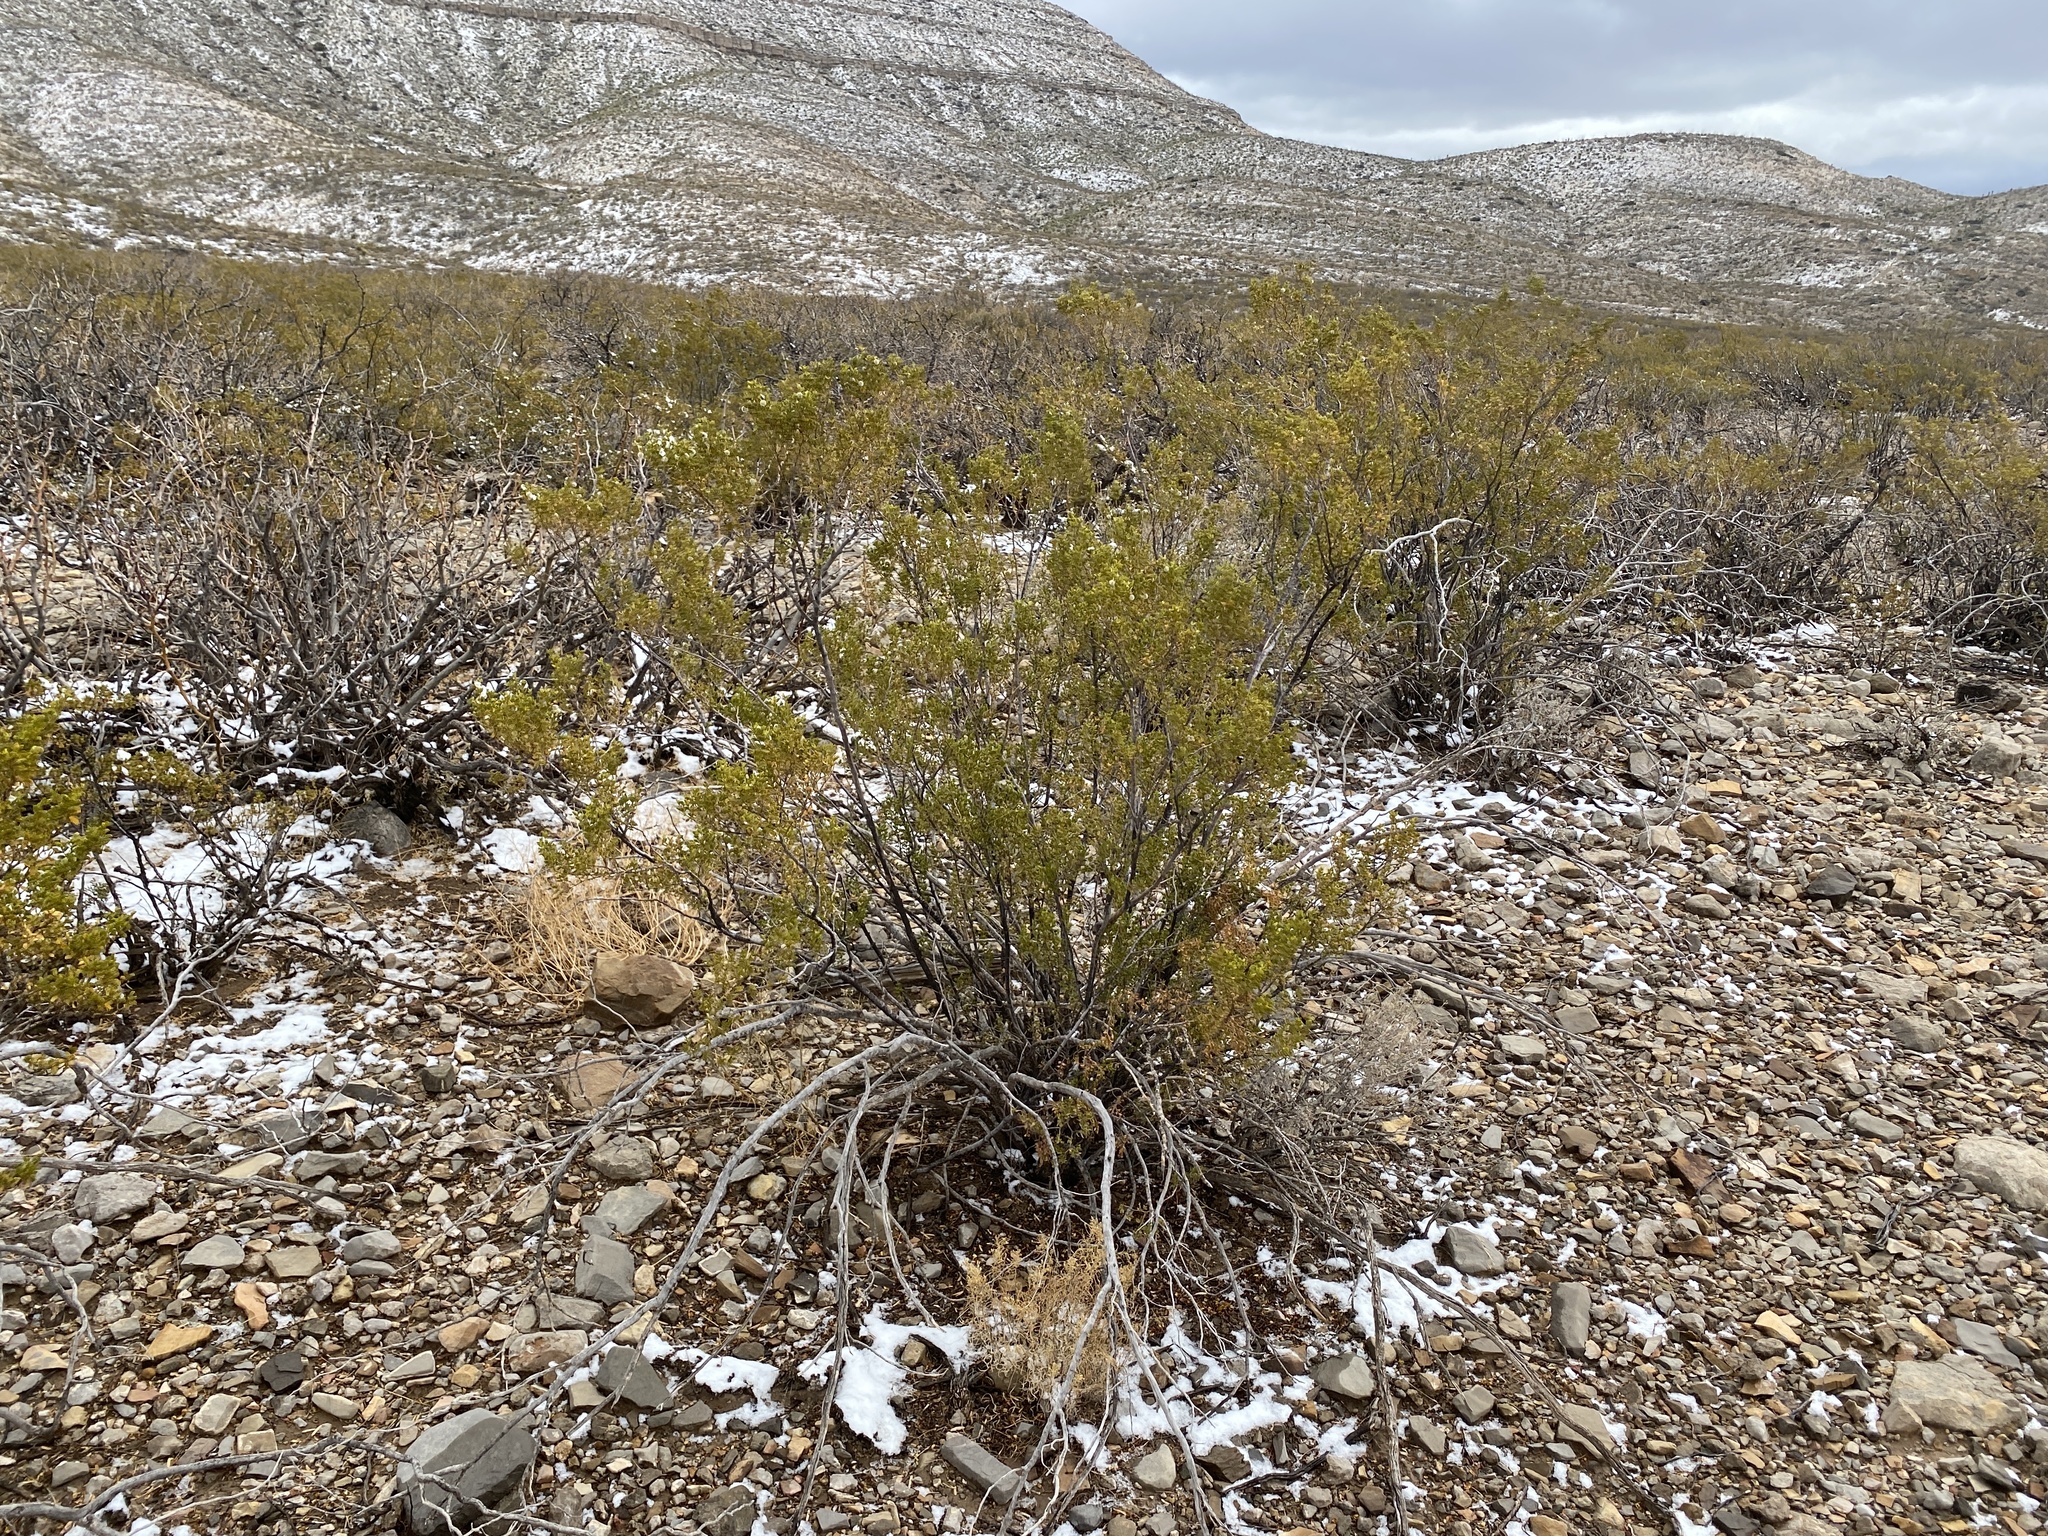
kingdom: Plantae
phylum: Tracheophyta
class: Magnoliopsida
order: Zygophyllales
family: Zygophyllaceae
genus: Larrea
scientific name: Larrea tridentata
